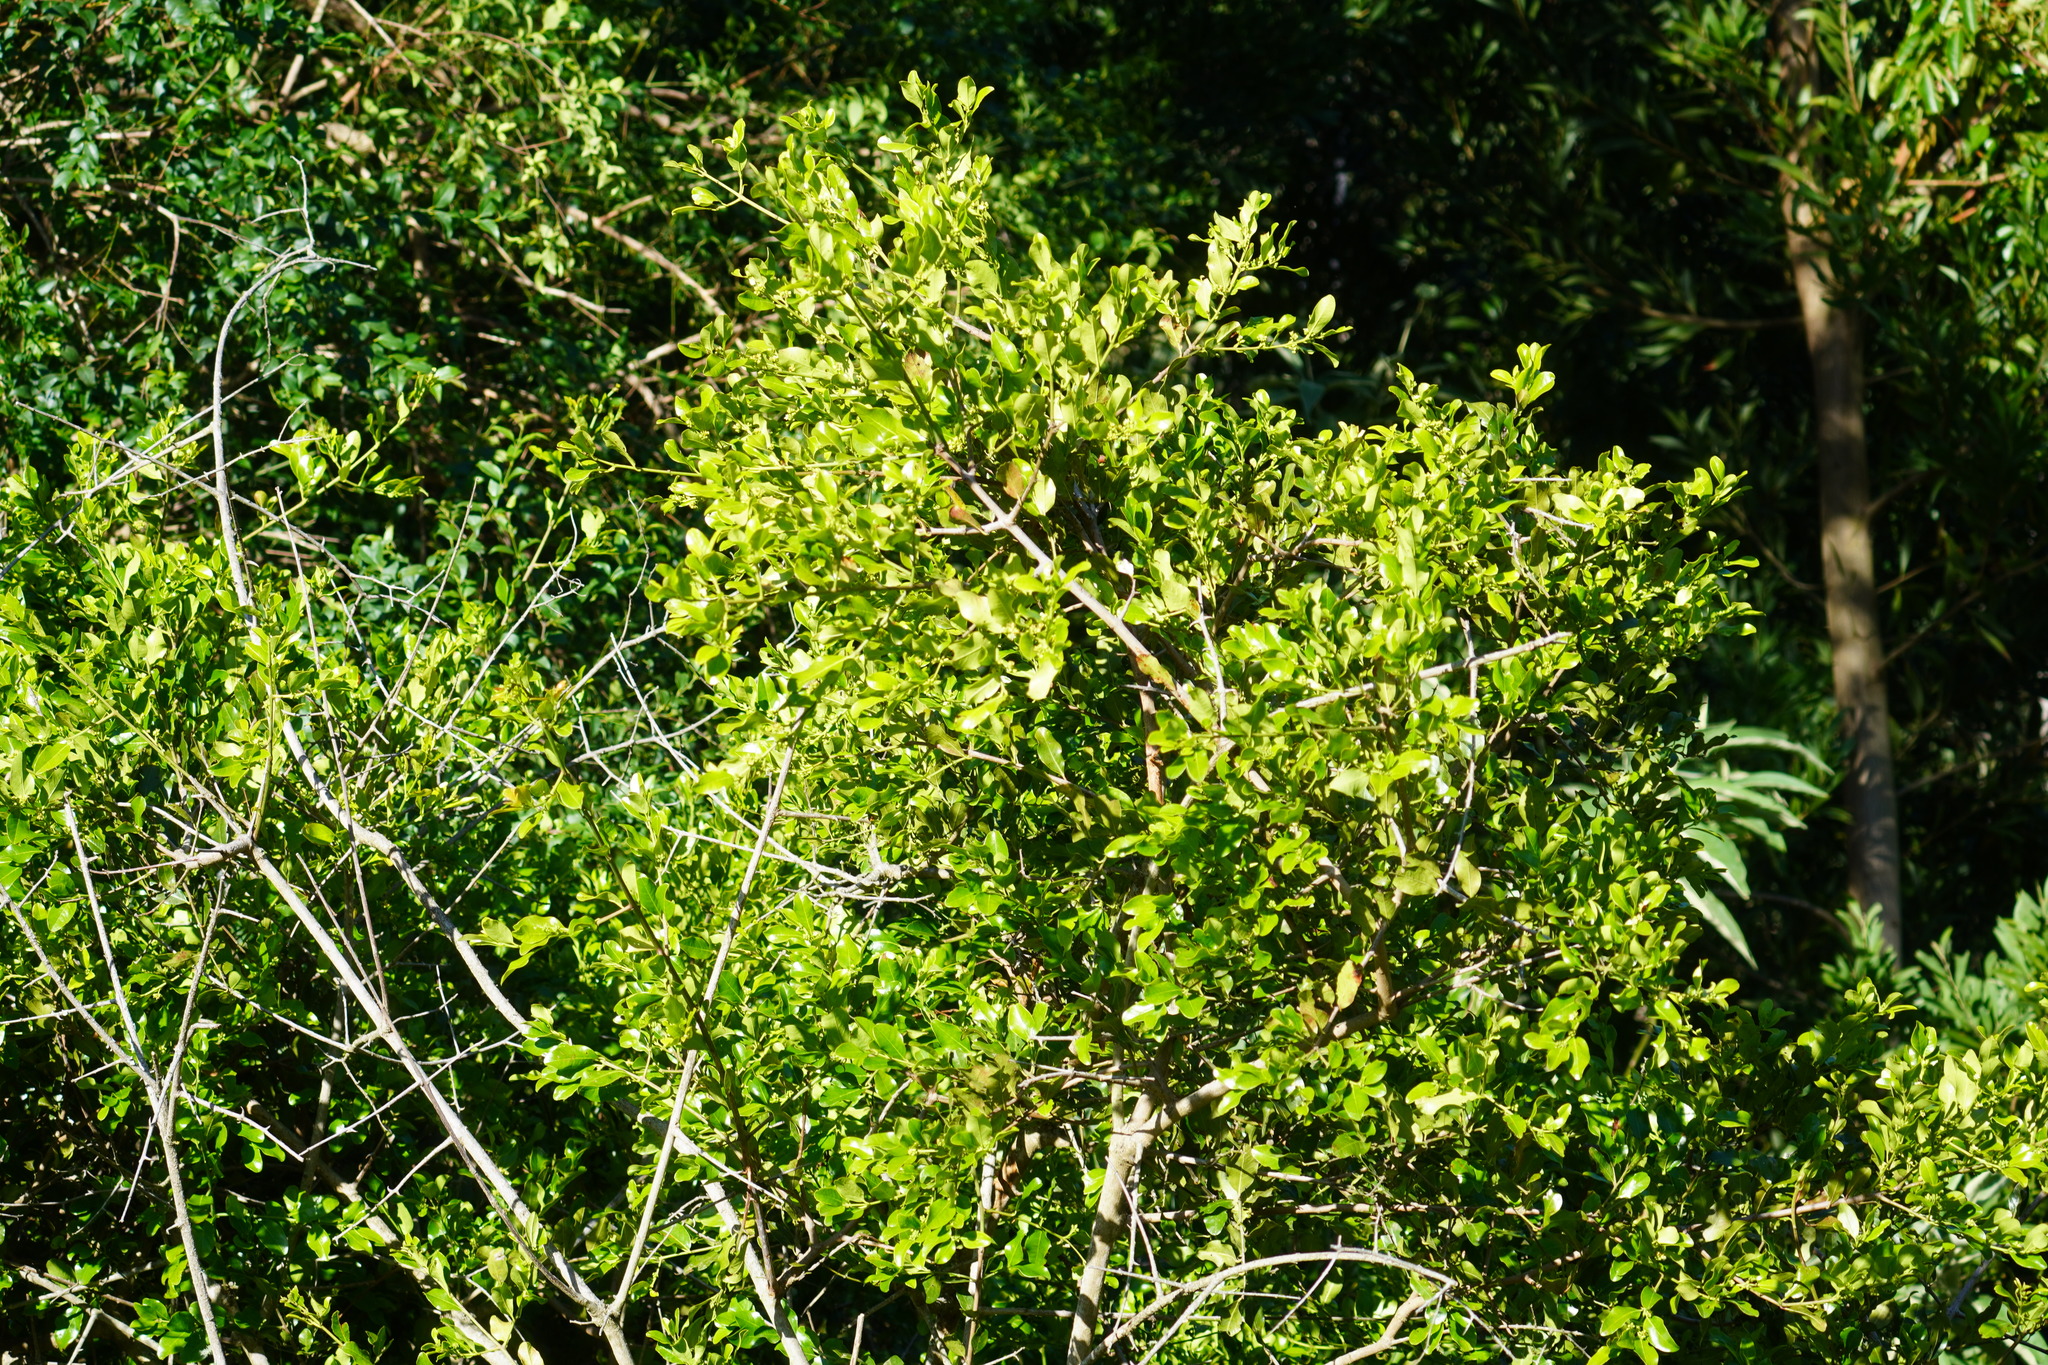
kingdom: Plantae
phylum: Tracheophyta
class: Magnoliopsida
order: Rosales
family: Rhamnaceae
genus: Scutia
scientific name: Scutia myrtina
